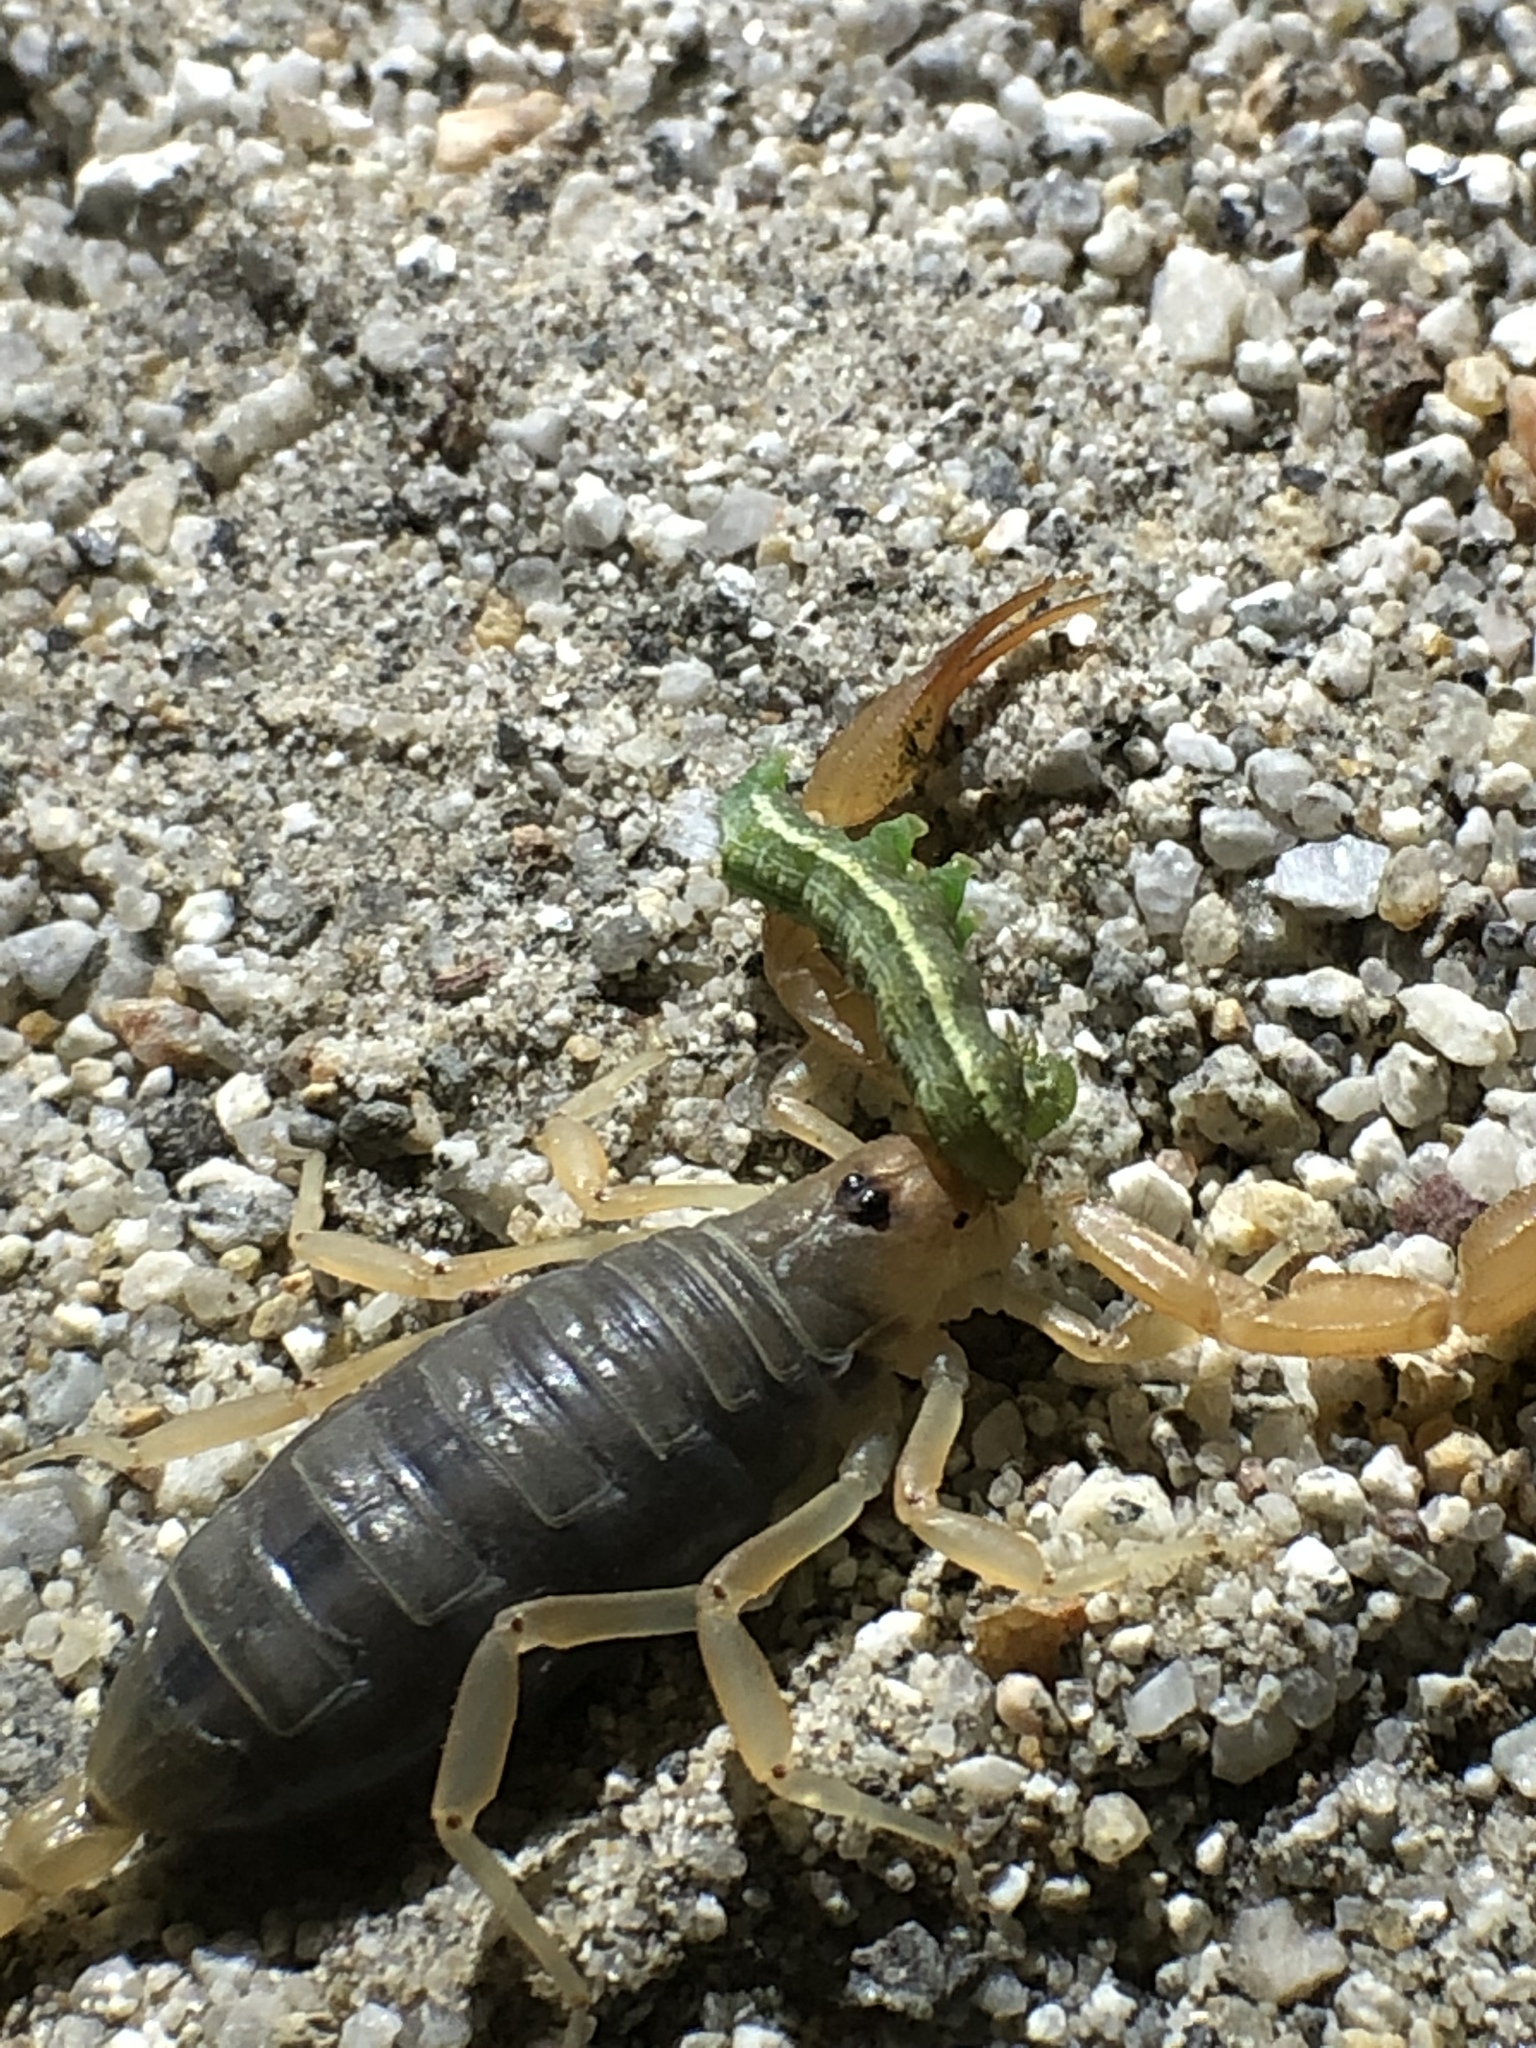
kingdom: Animalia
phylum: Arthropoda
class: Arachnida
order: Scorpiones
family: Vaejovidae
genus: Smeringurus
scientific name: Smeringurus vachoni
